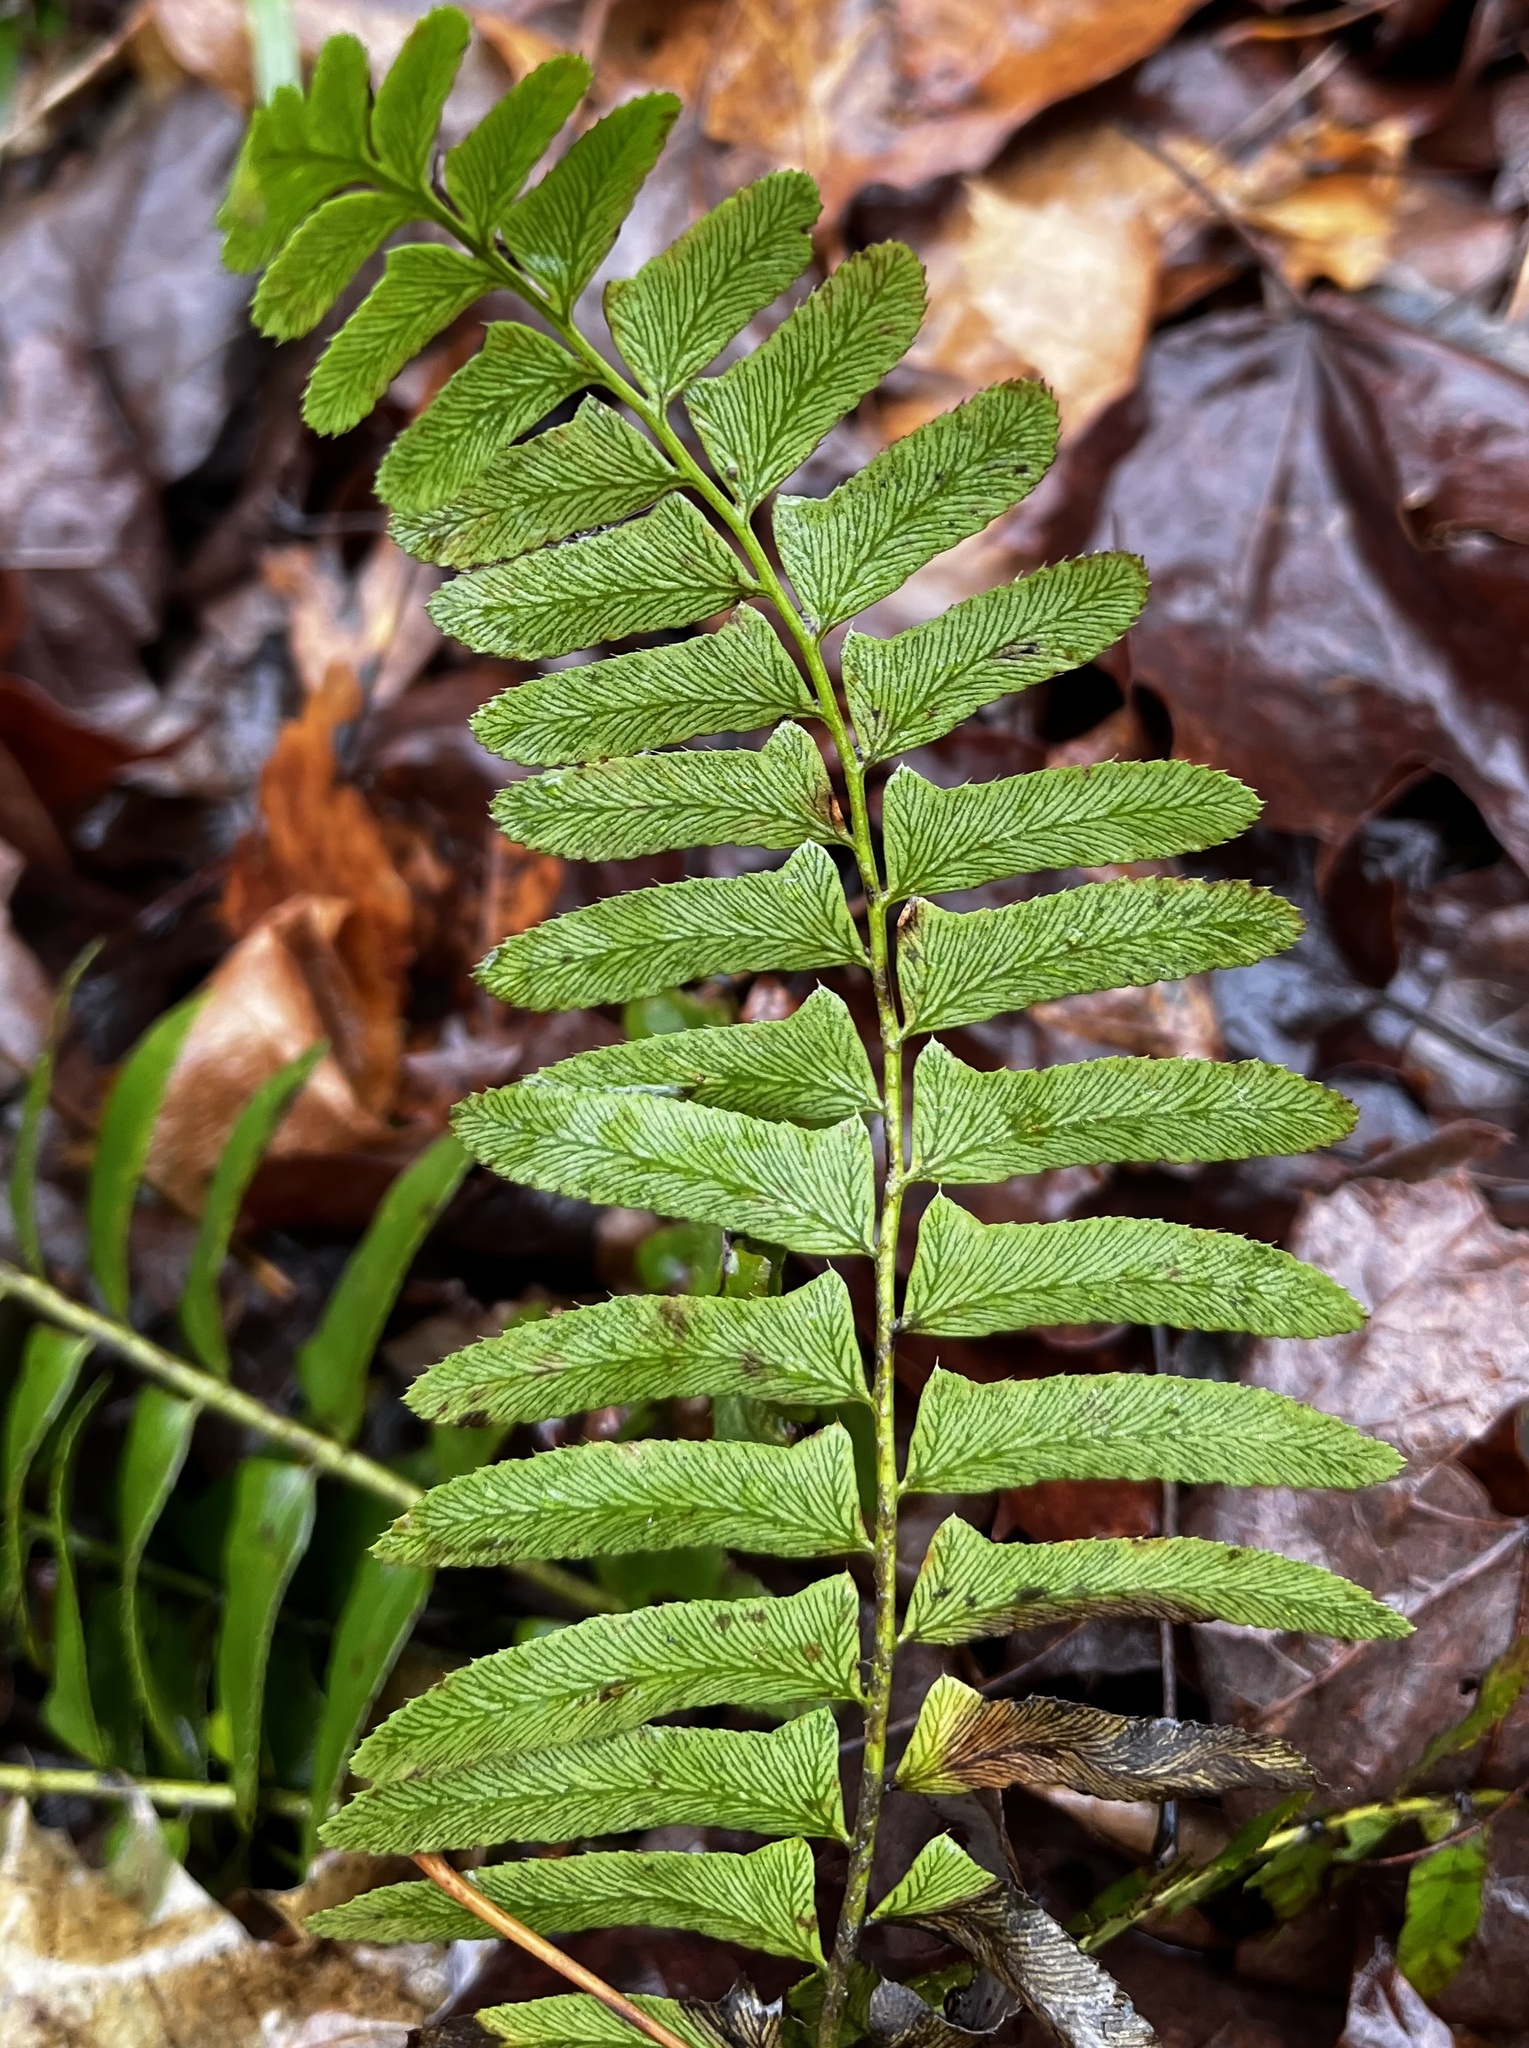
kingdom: Plantae
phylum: Tracheophyta
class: Polypodiopsida
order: Polypodiales
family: Dryopteridaceae
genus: Polystichum
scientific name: Polystichum acrostichoides
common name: Christmas fern
